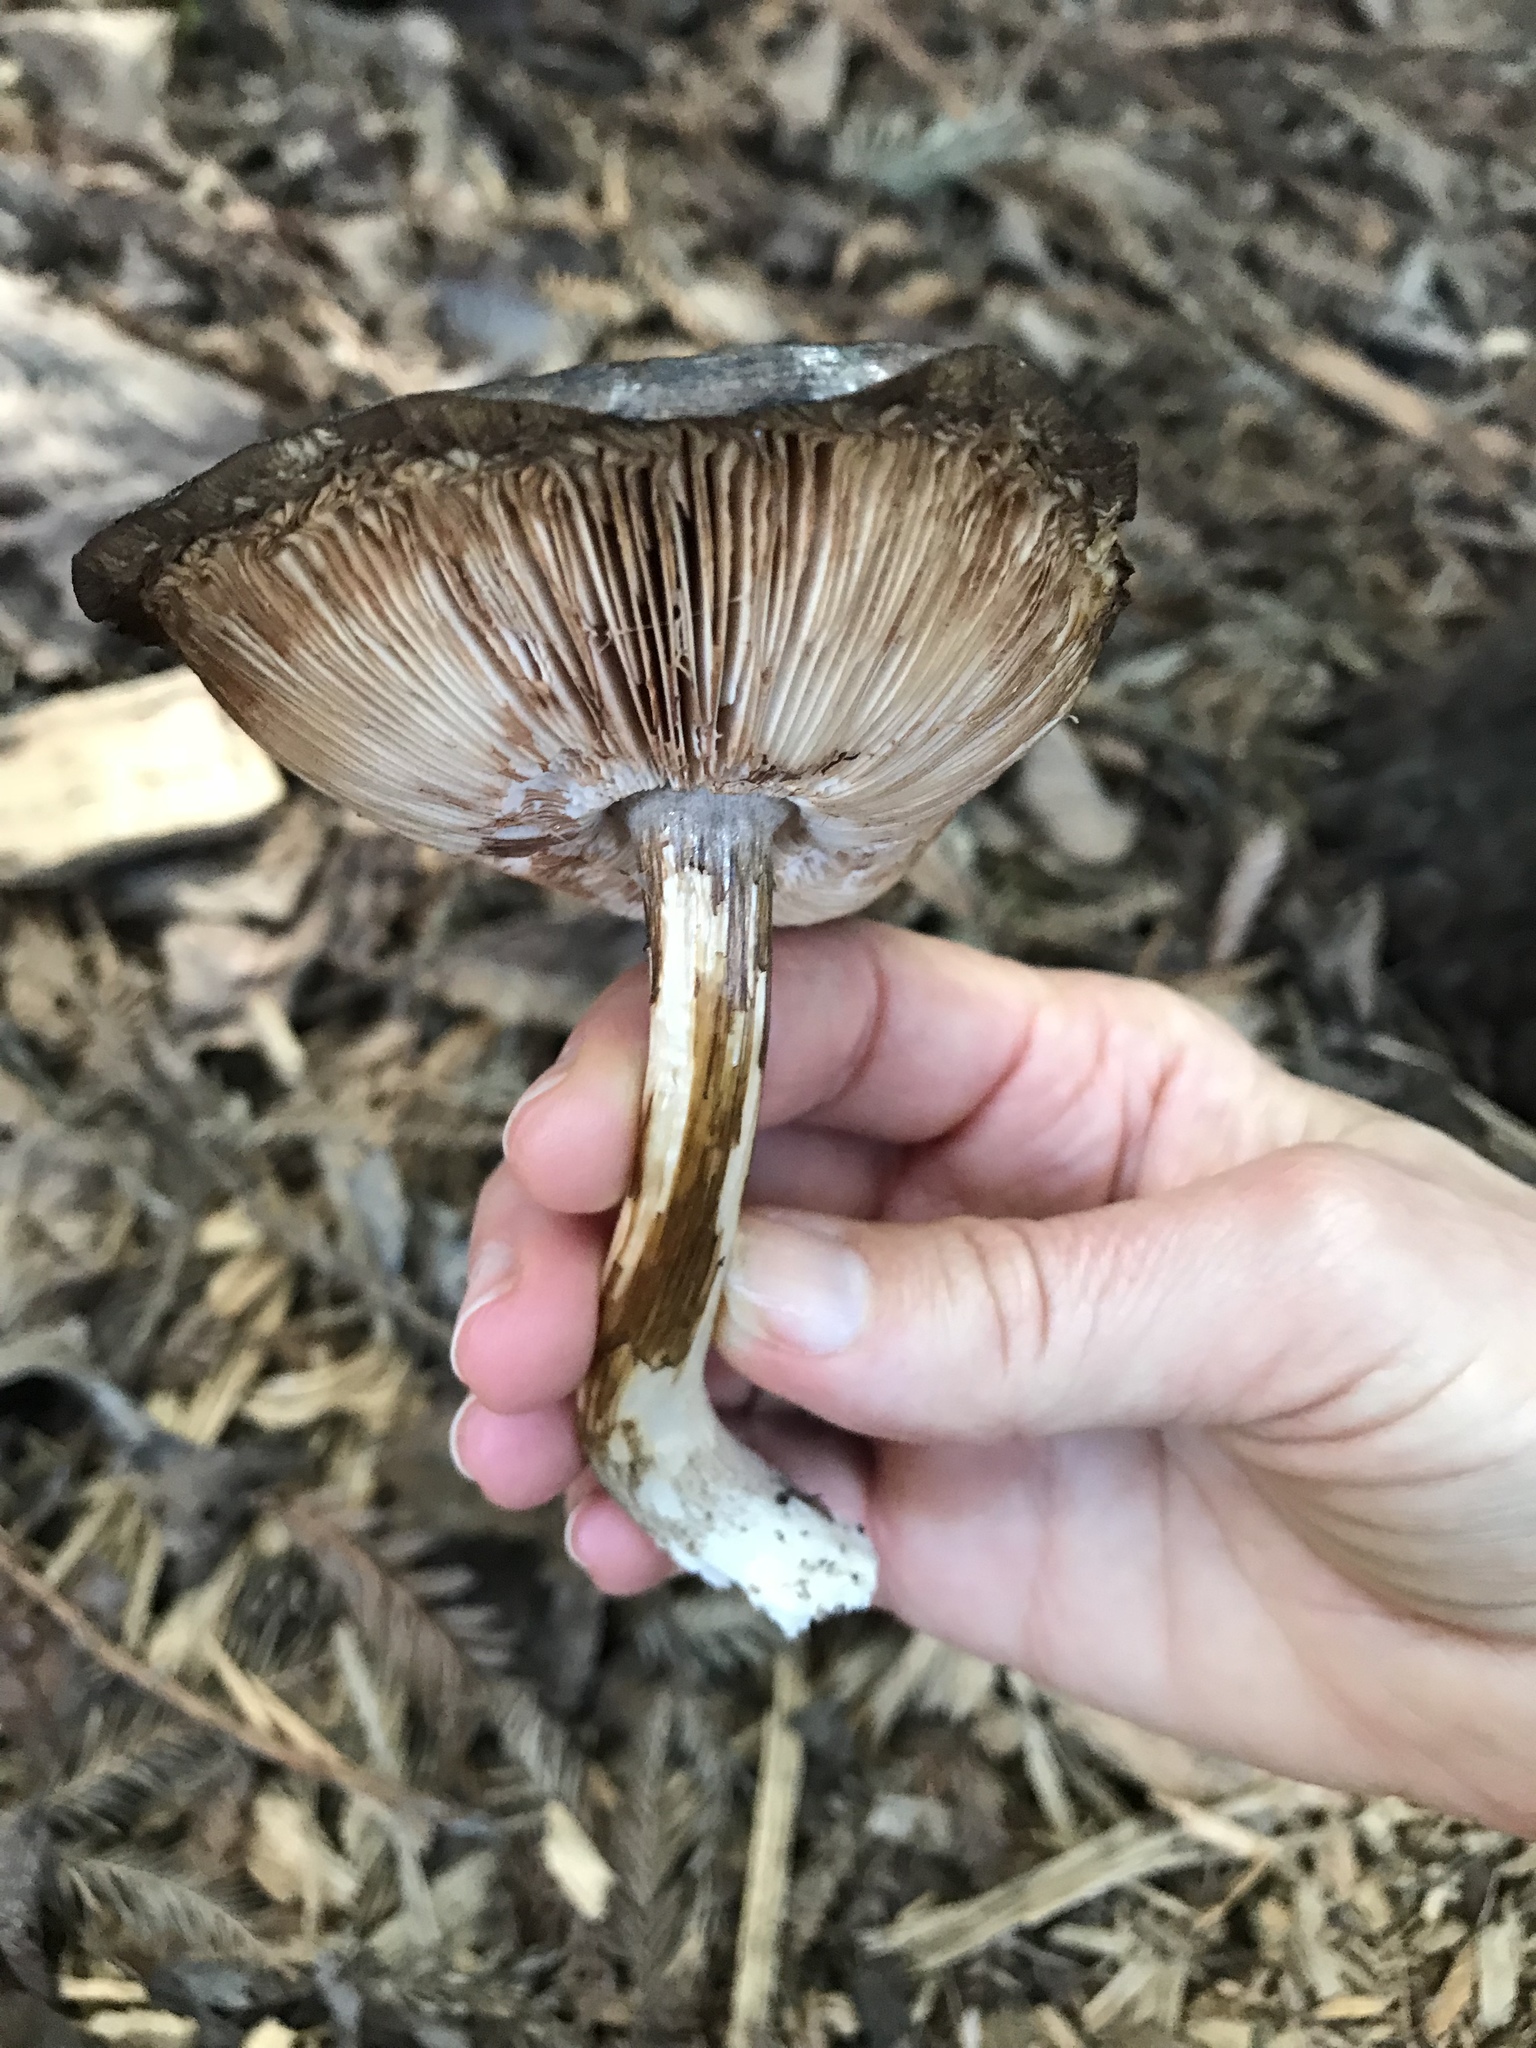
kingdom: Fungi
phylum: Basidiomycota
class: Agaricomycetes
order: Agaricales
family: Pluteaceae
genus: Pluteus
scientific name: Pluteus exilis
